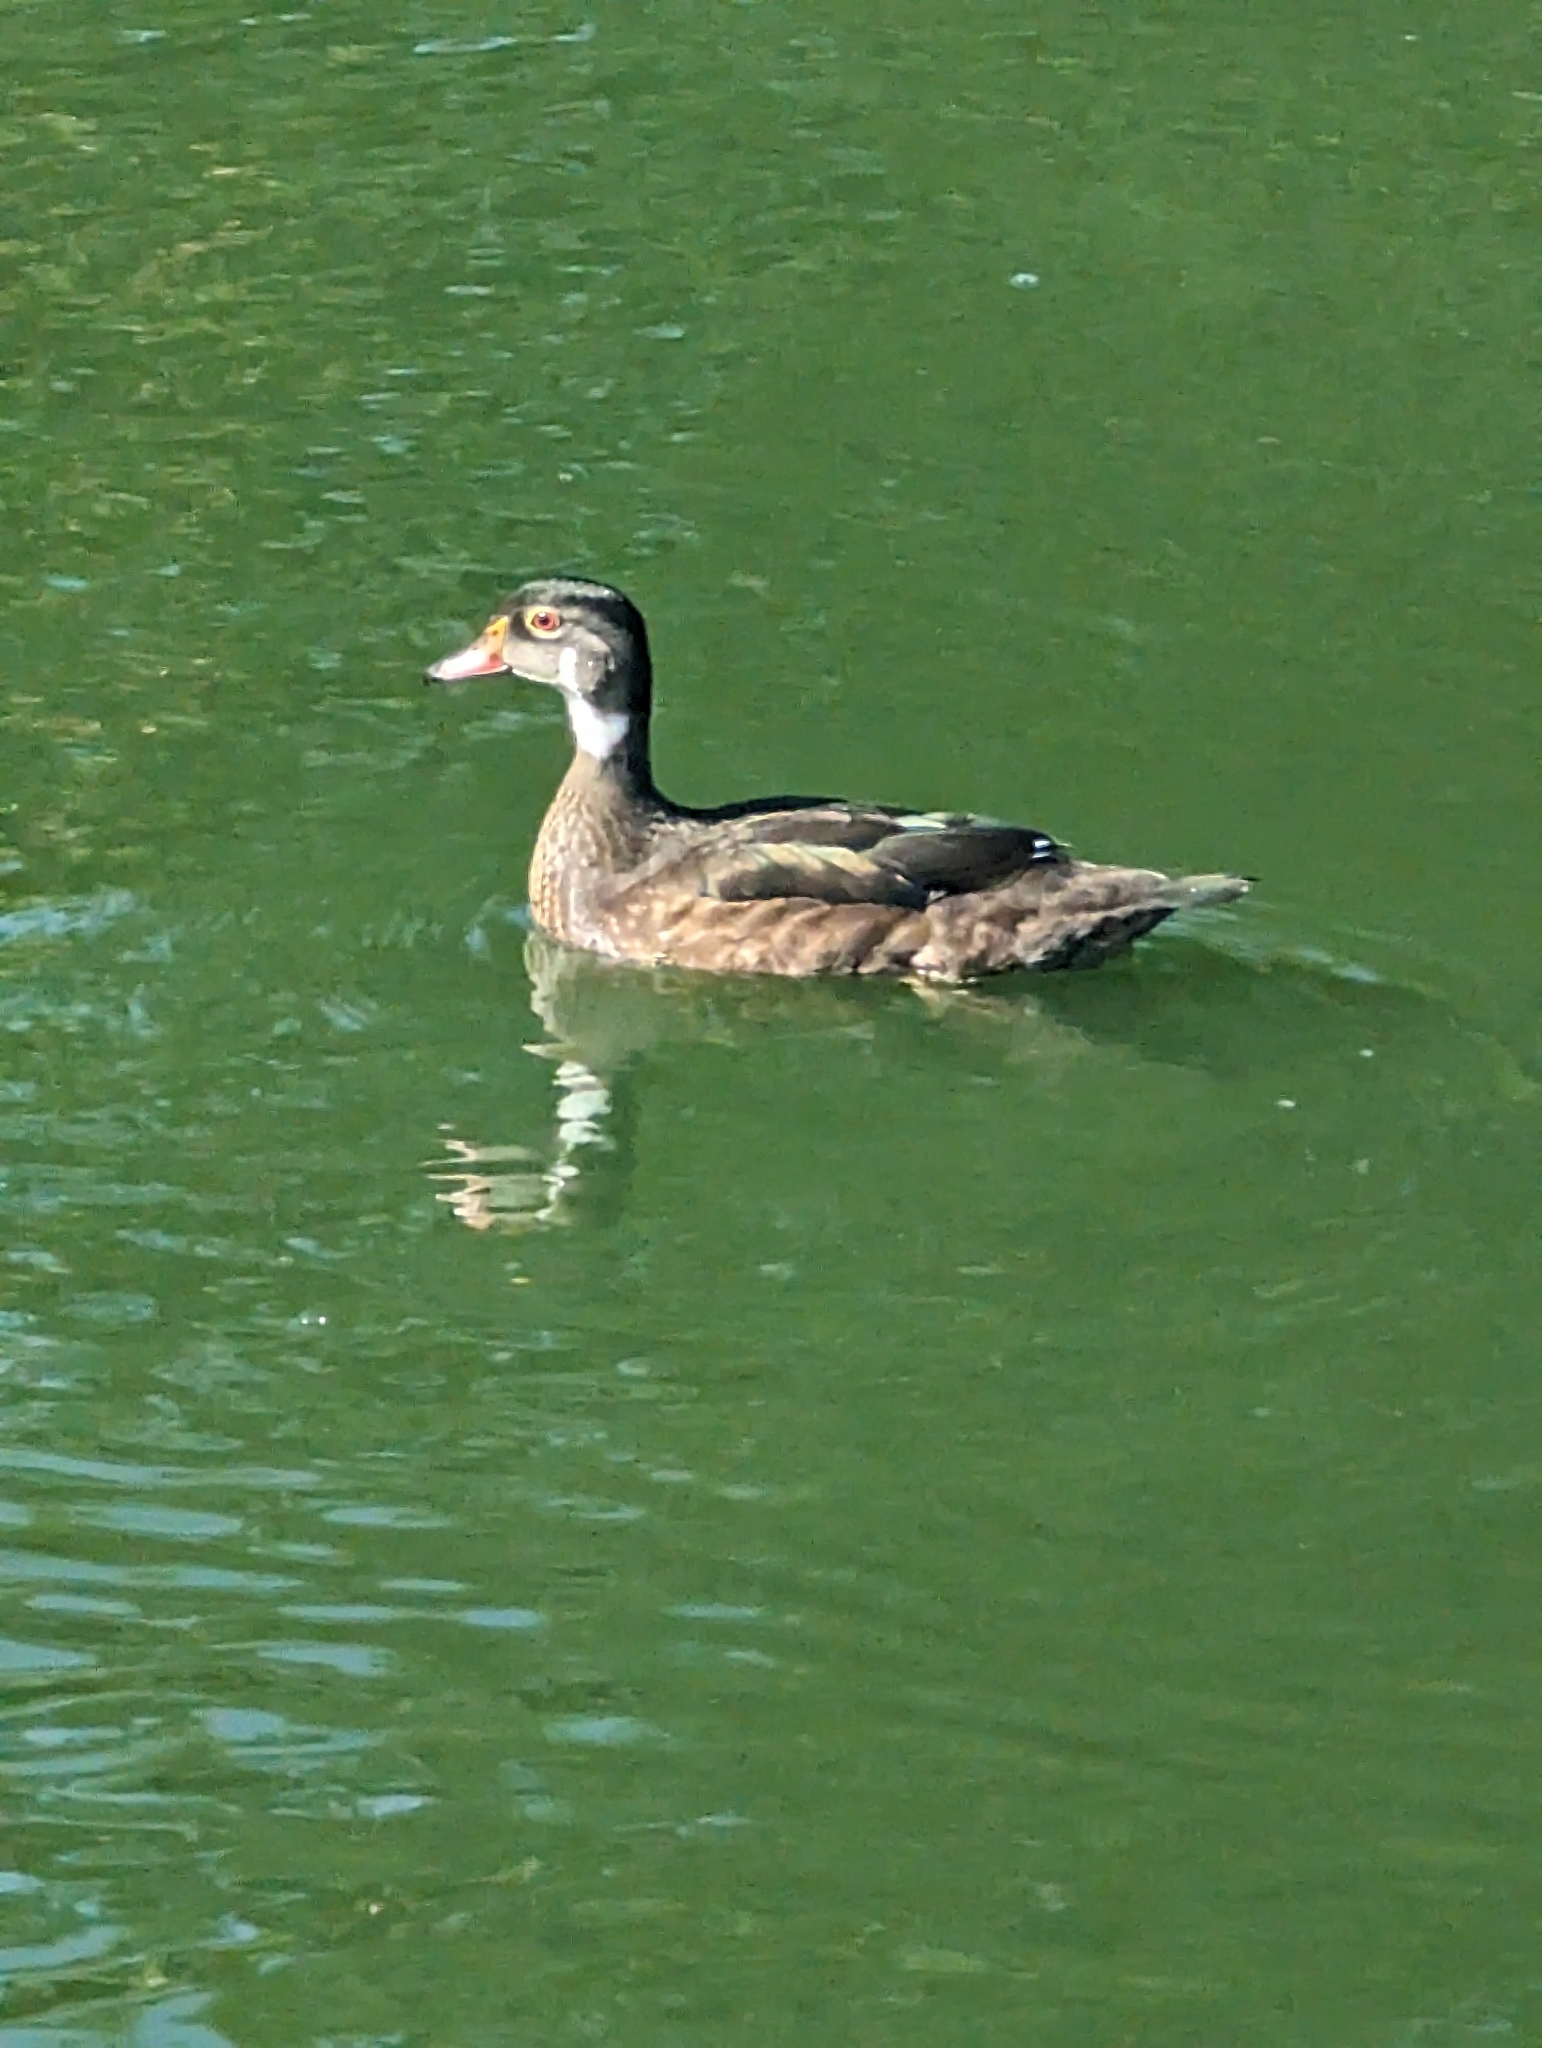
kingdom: Animalia
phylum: Chordata
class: Aves
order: Anseriformes
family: Anatidae
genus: Aix
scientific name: Aix sponsa
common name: Wood duck
